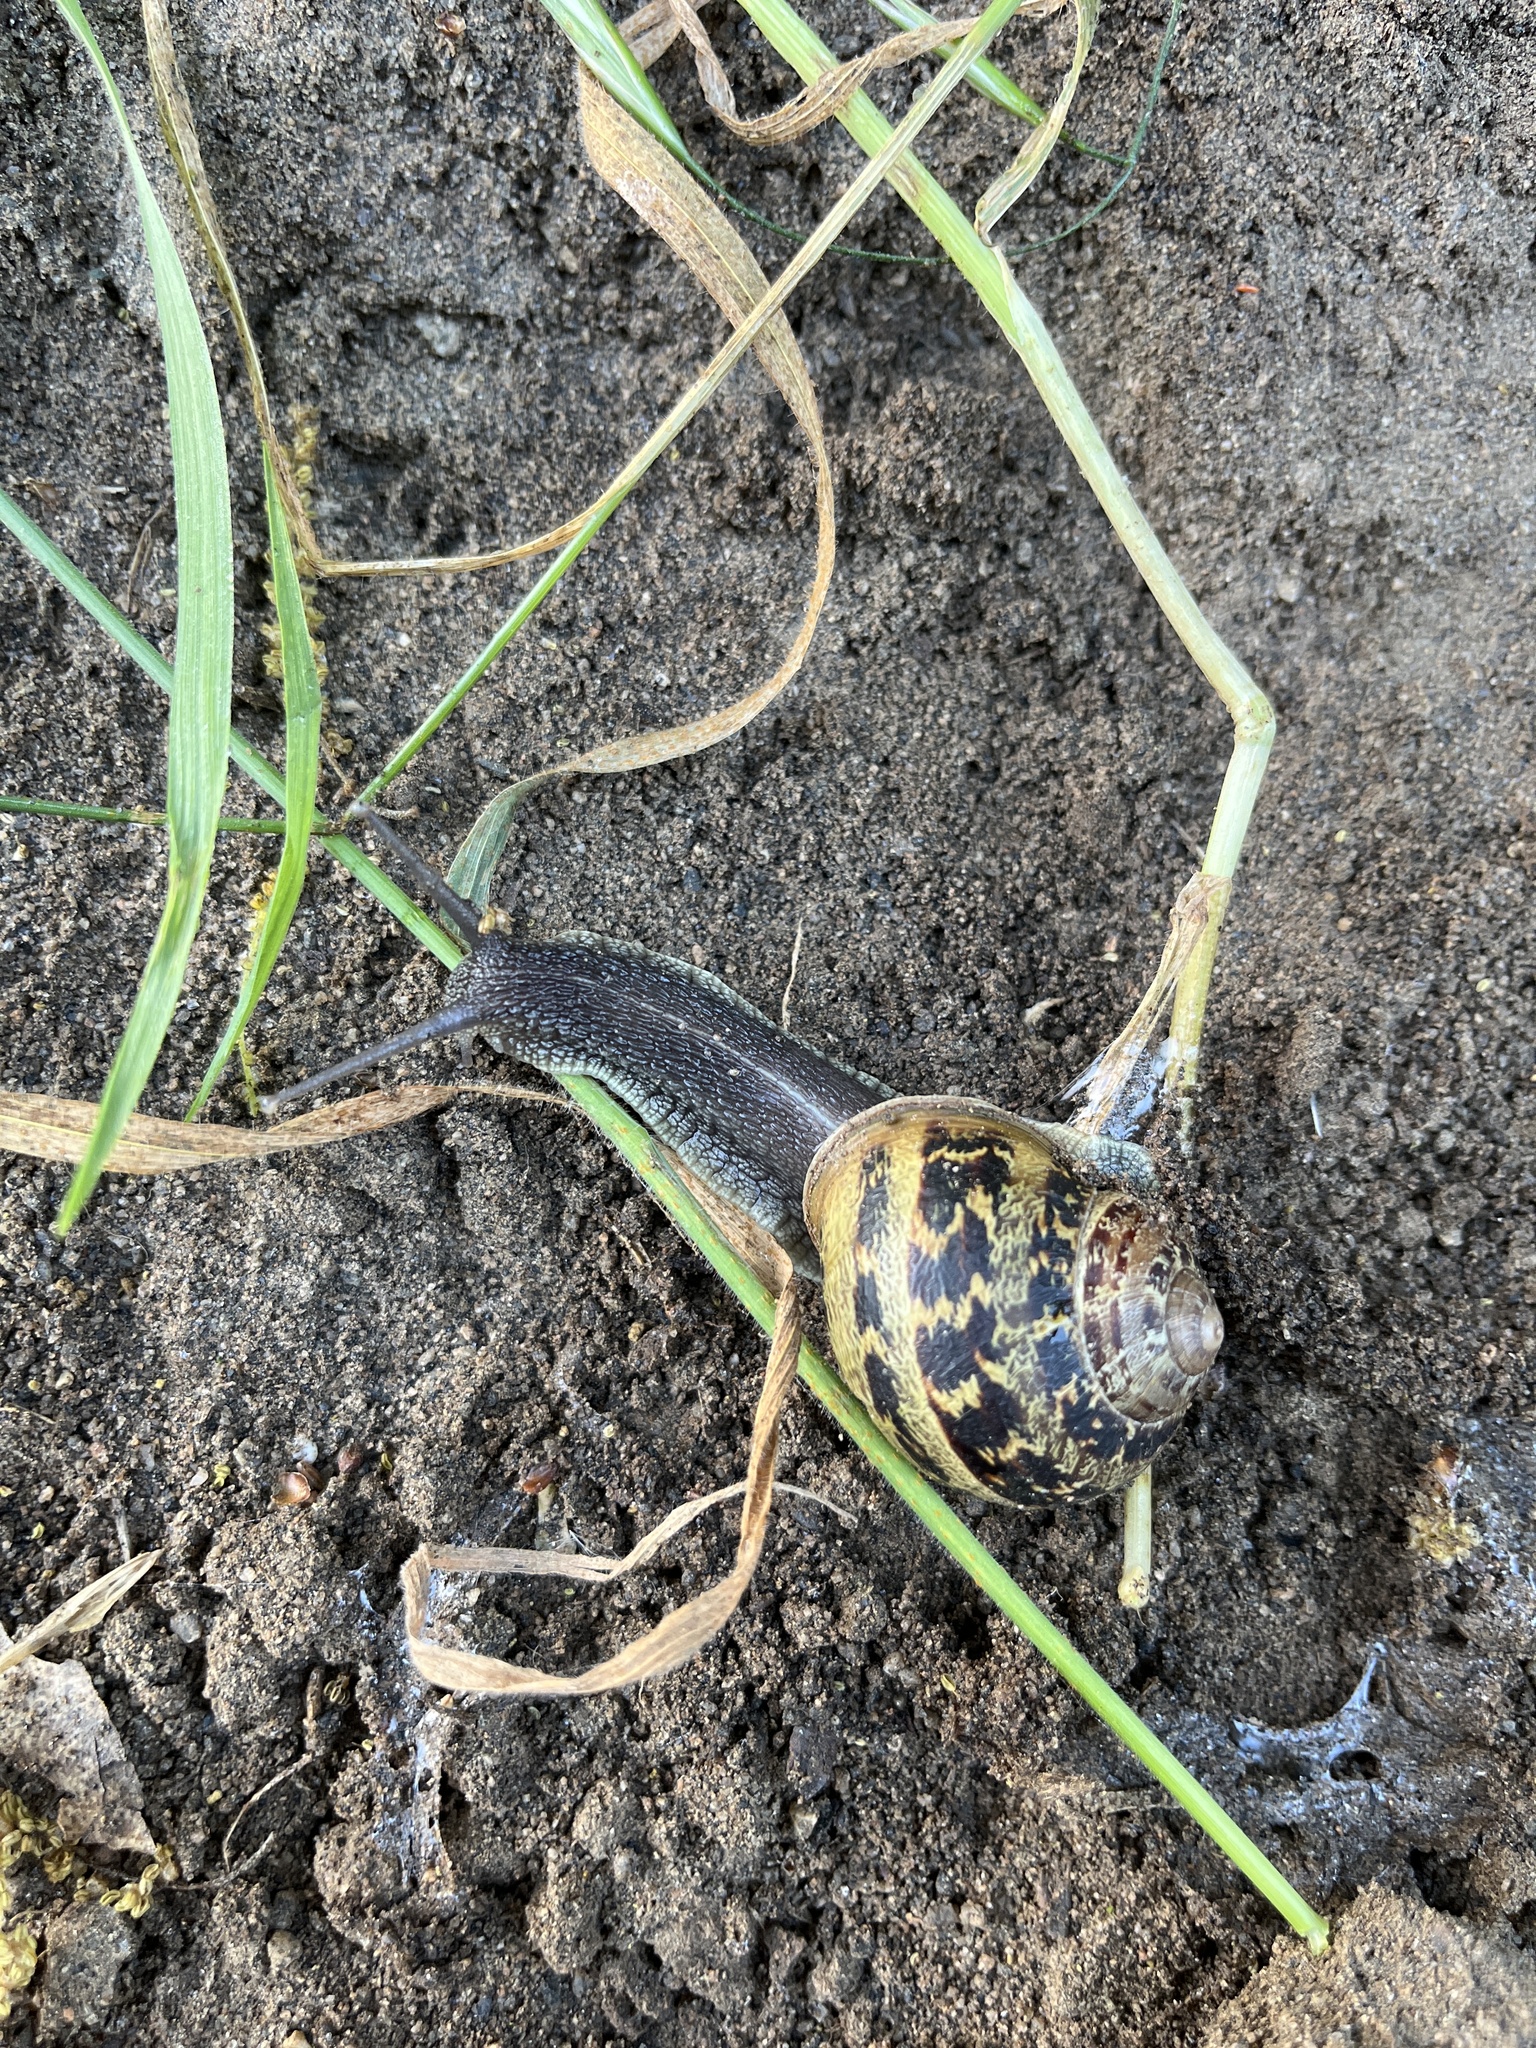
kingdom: Animalia
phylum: Mollusca
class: Gastropoda
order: Stylommatophora
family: Helicidae
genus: Cornu
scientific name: Cornu aspersum
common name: Brown garden snail
